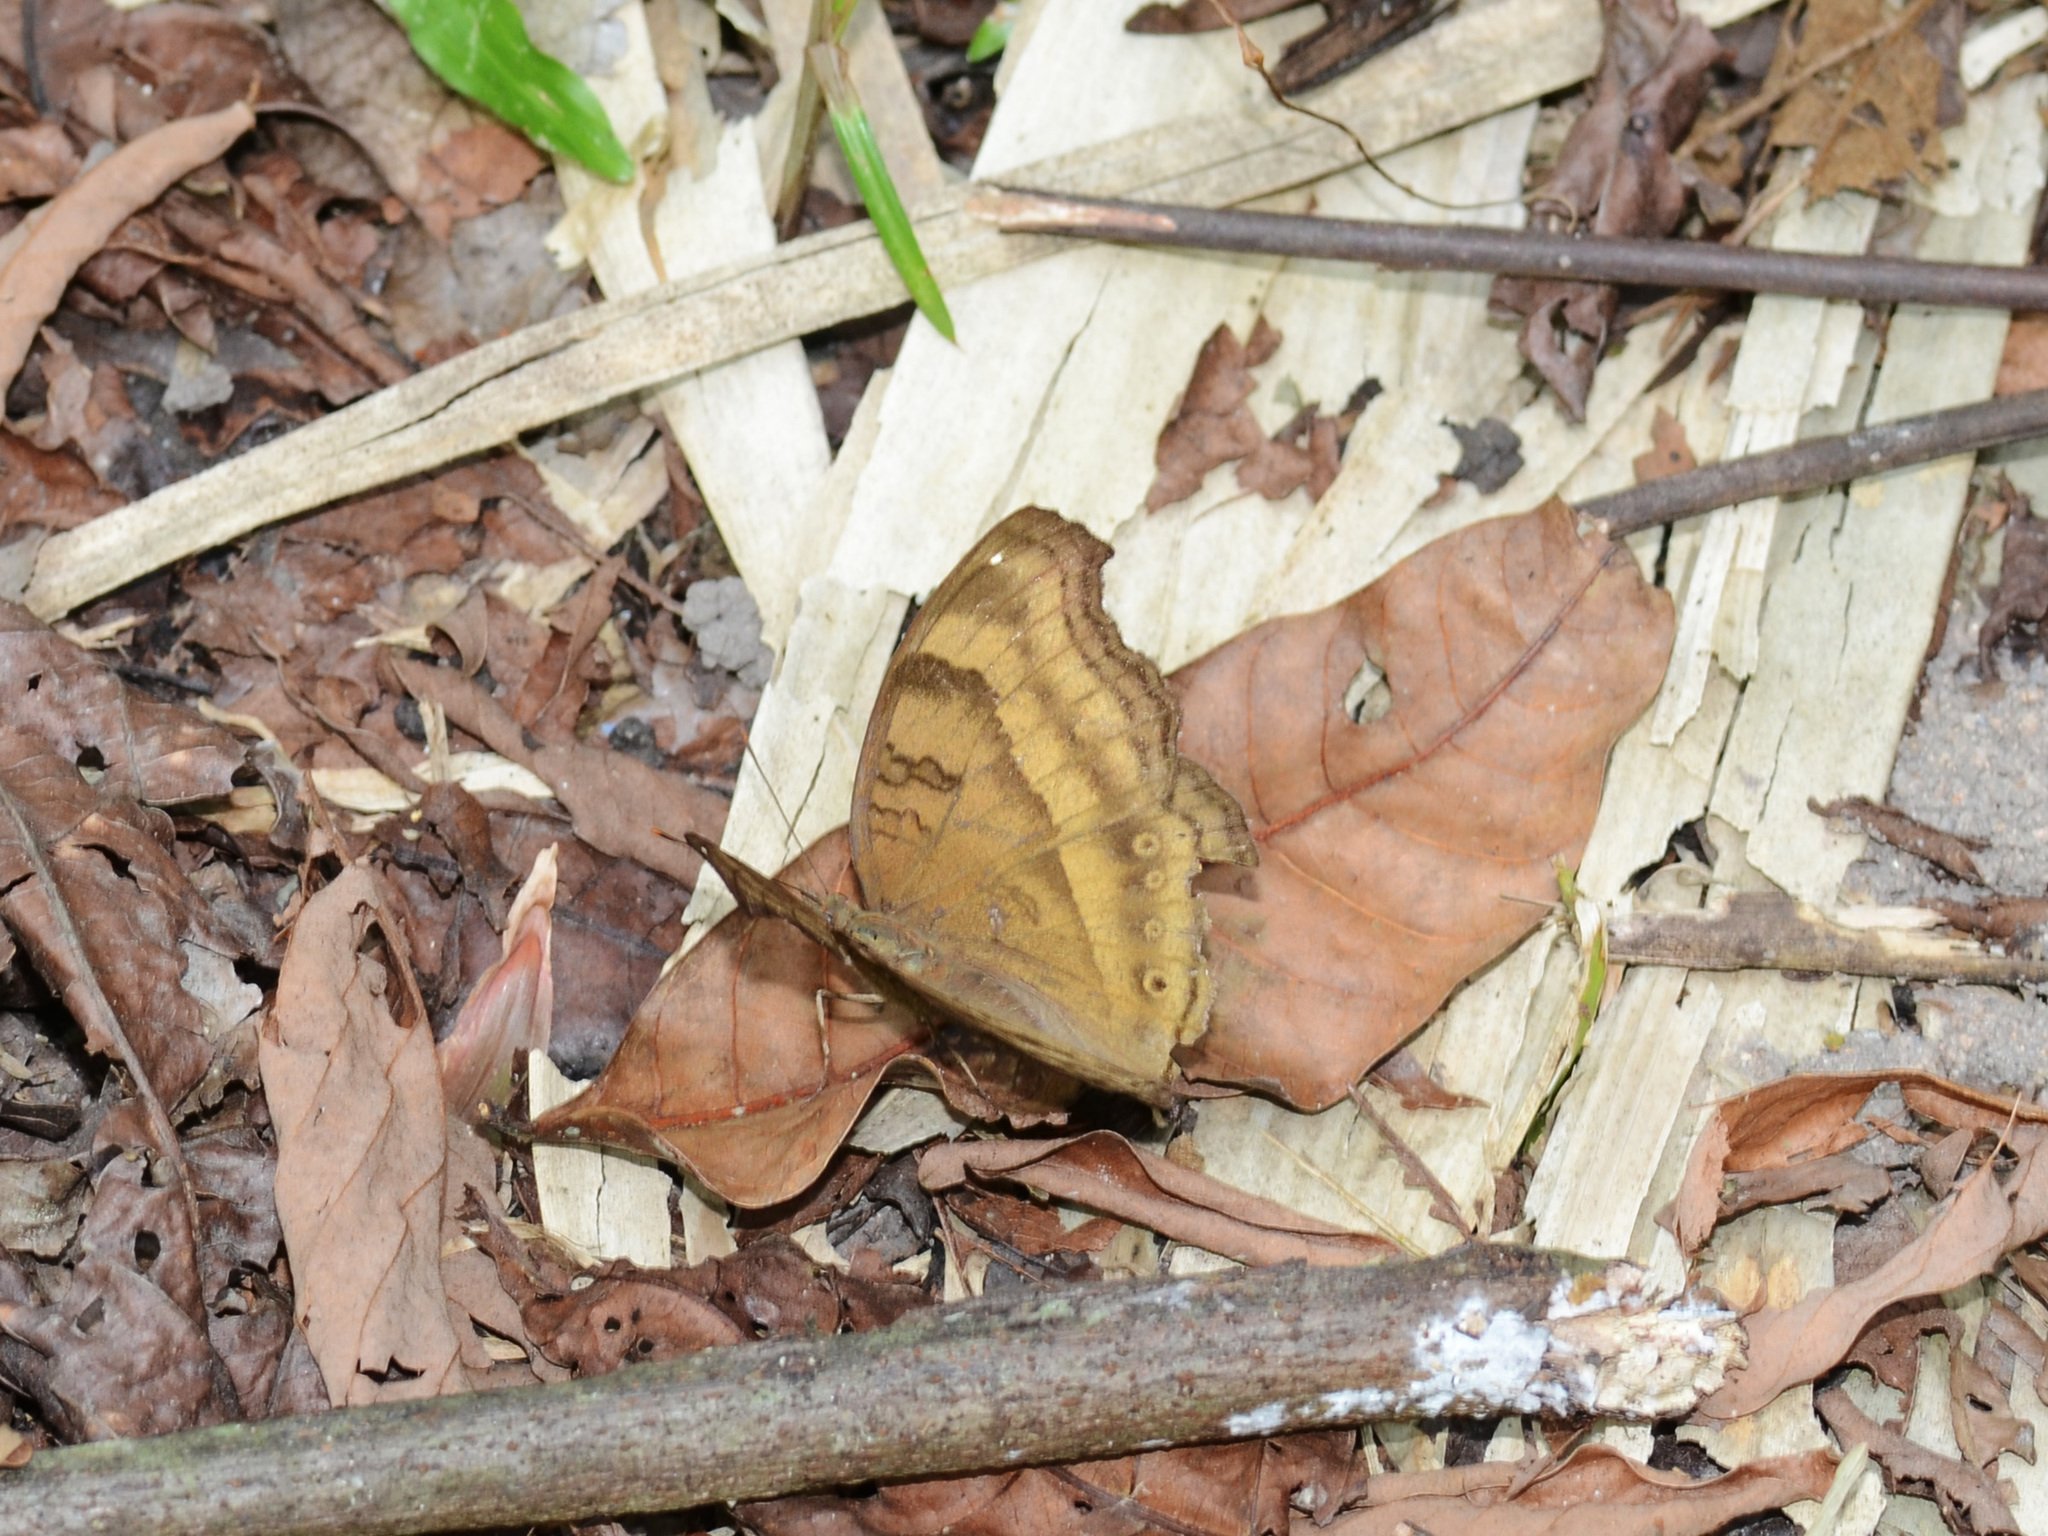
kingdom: Animalia
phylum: Arthropoda
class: Insecta
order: Lepidoptera
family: Nymphalidae
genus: Junonia
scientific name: Junonia iphita
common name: Chocolate pansy
